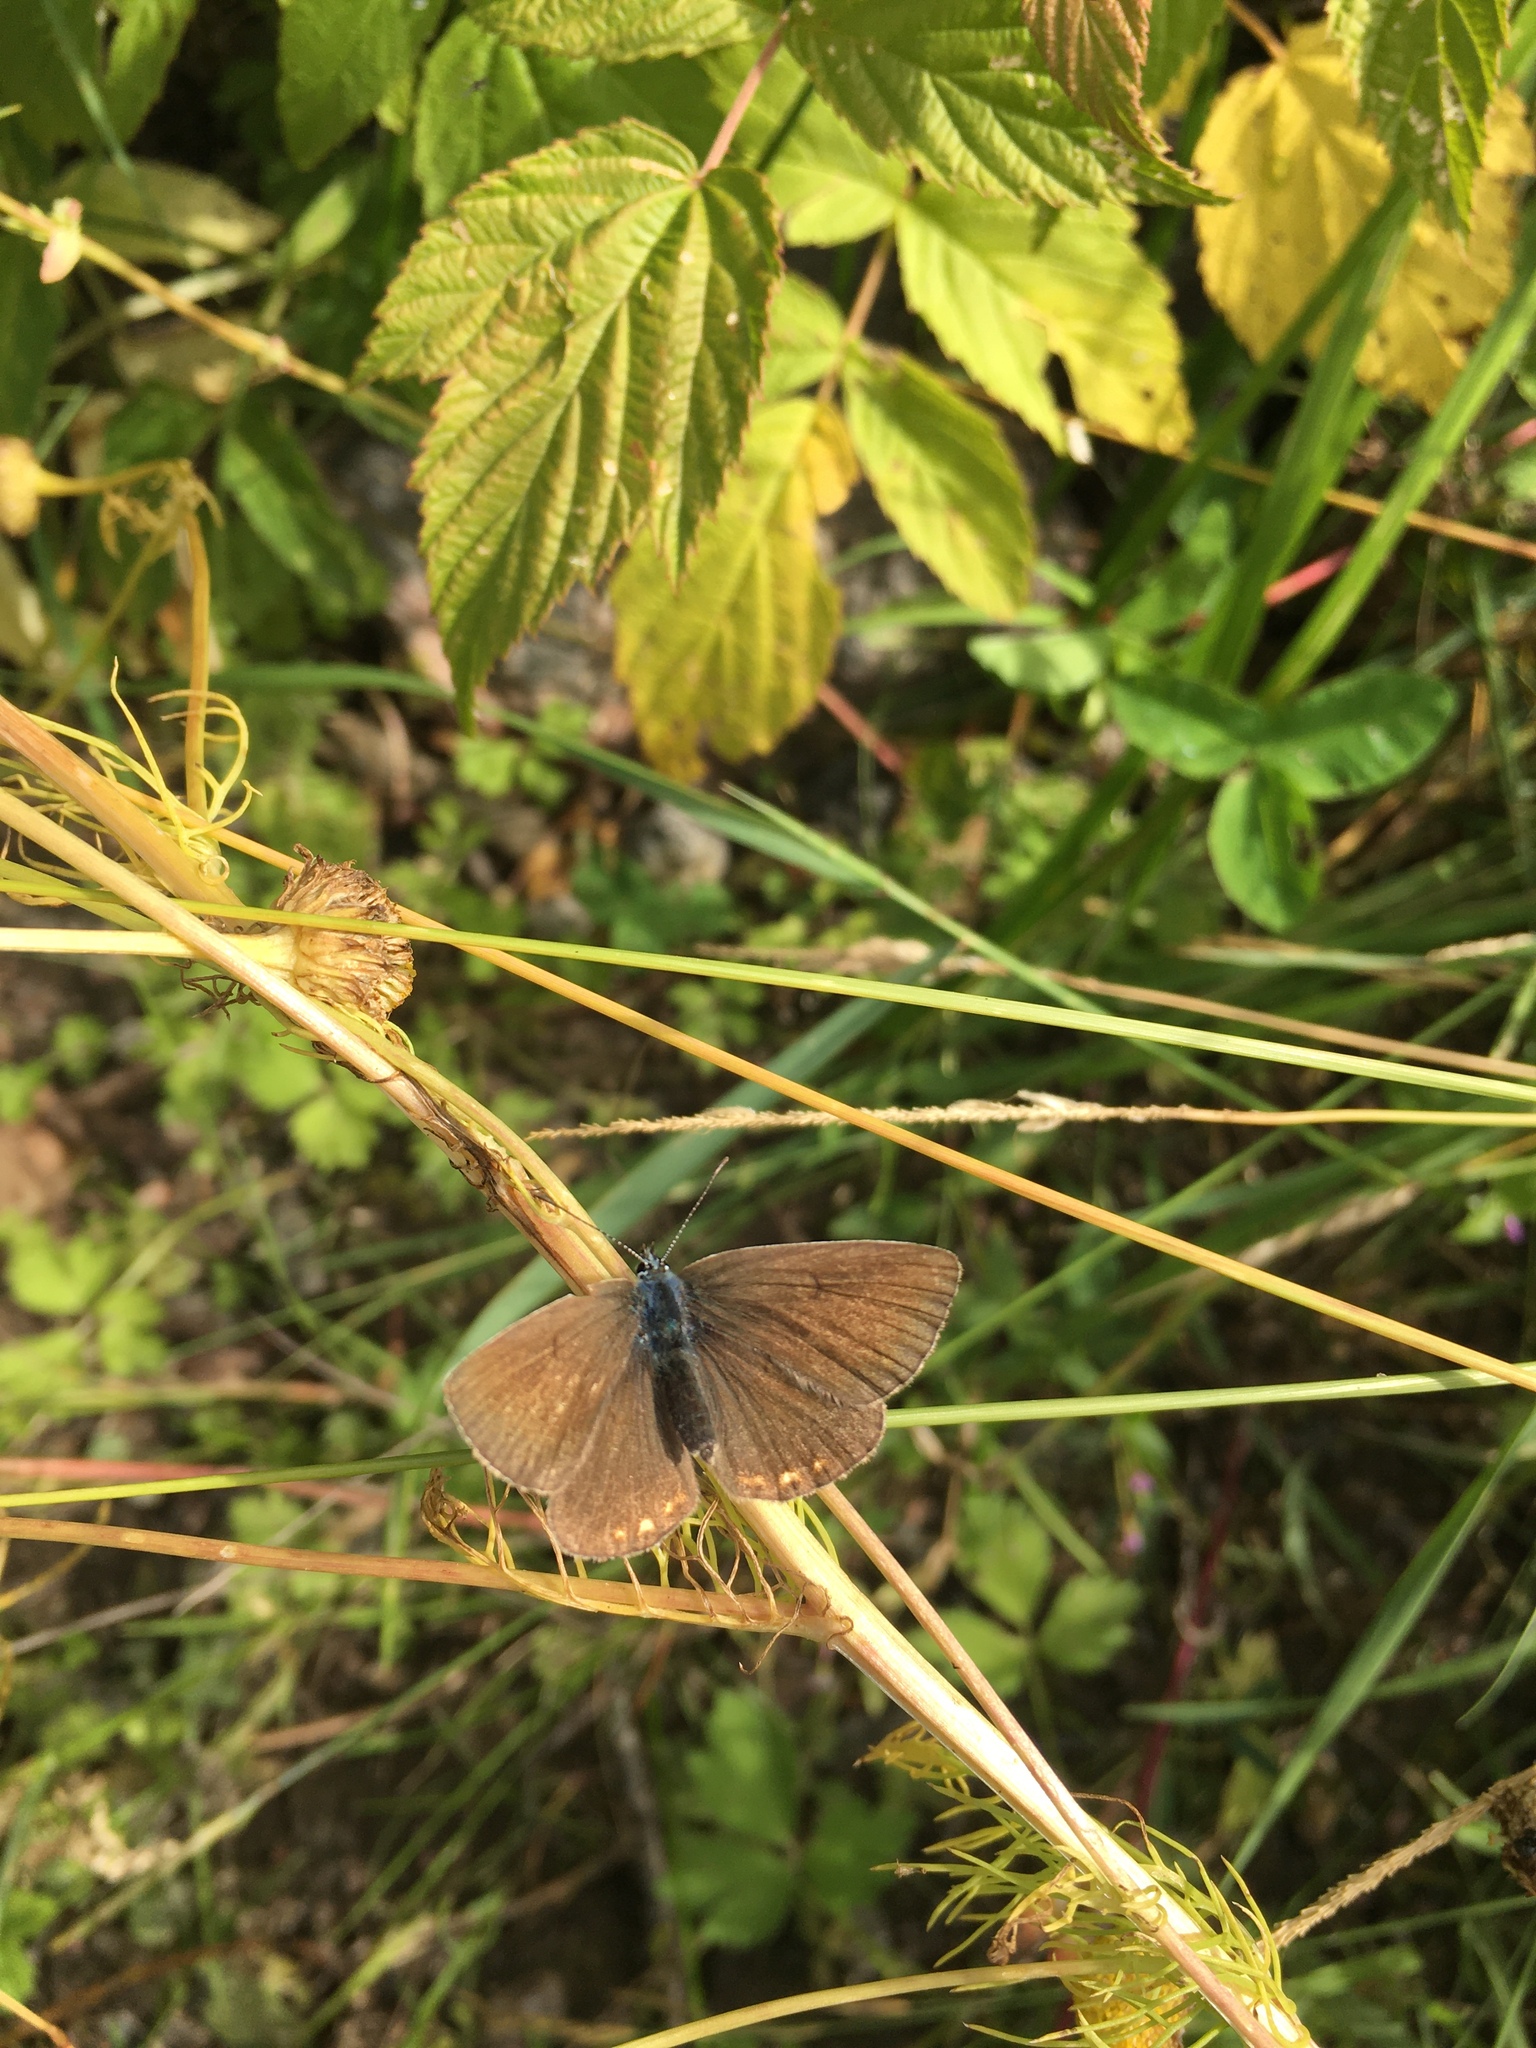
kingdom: Animalia
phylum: Arthropoda
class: Insecta
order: Lepidoptera
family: Nymphalidae
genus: Aphantopus
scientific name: Aphantopus hyperantus
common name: Ringlet
